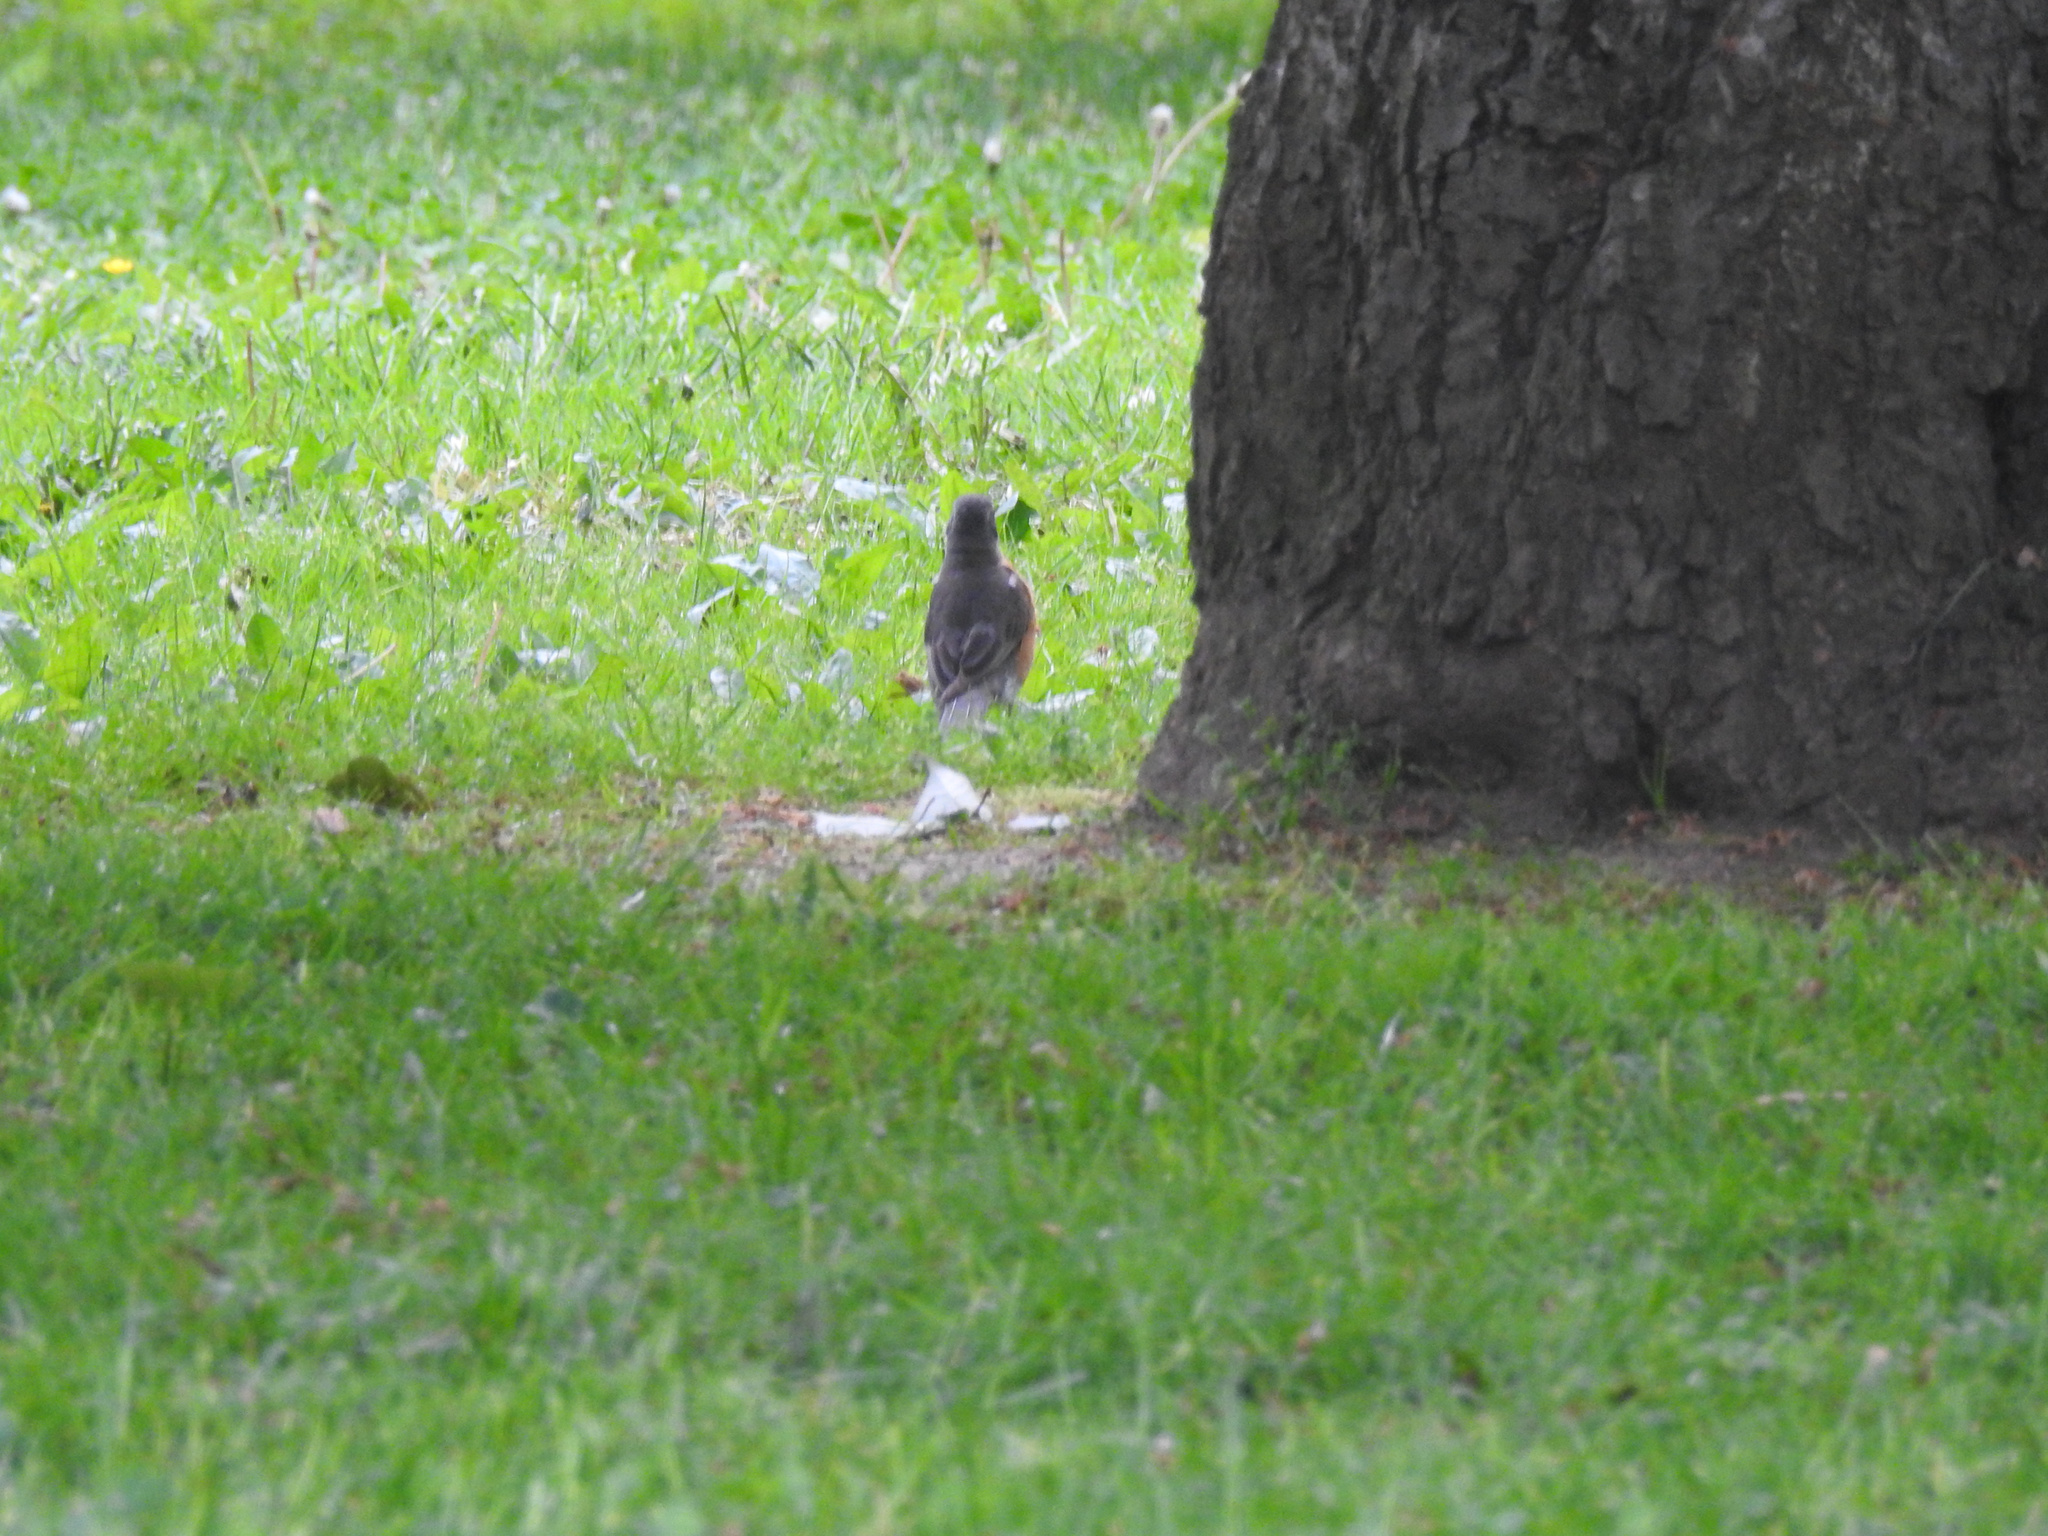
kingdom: Animalia
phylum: Chordata
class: Aves
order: Passeriformes
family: Turdidae
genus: Turdus
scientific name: Turdus migratorius
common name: American robin
